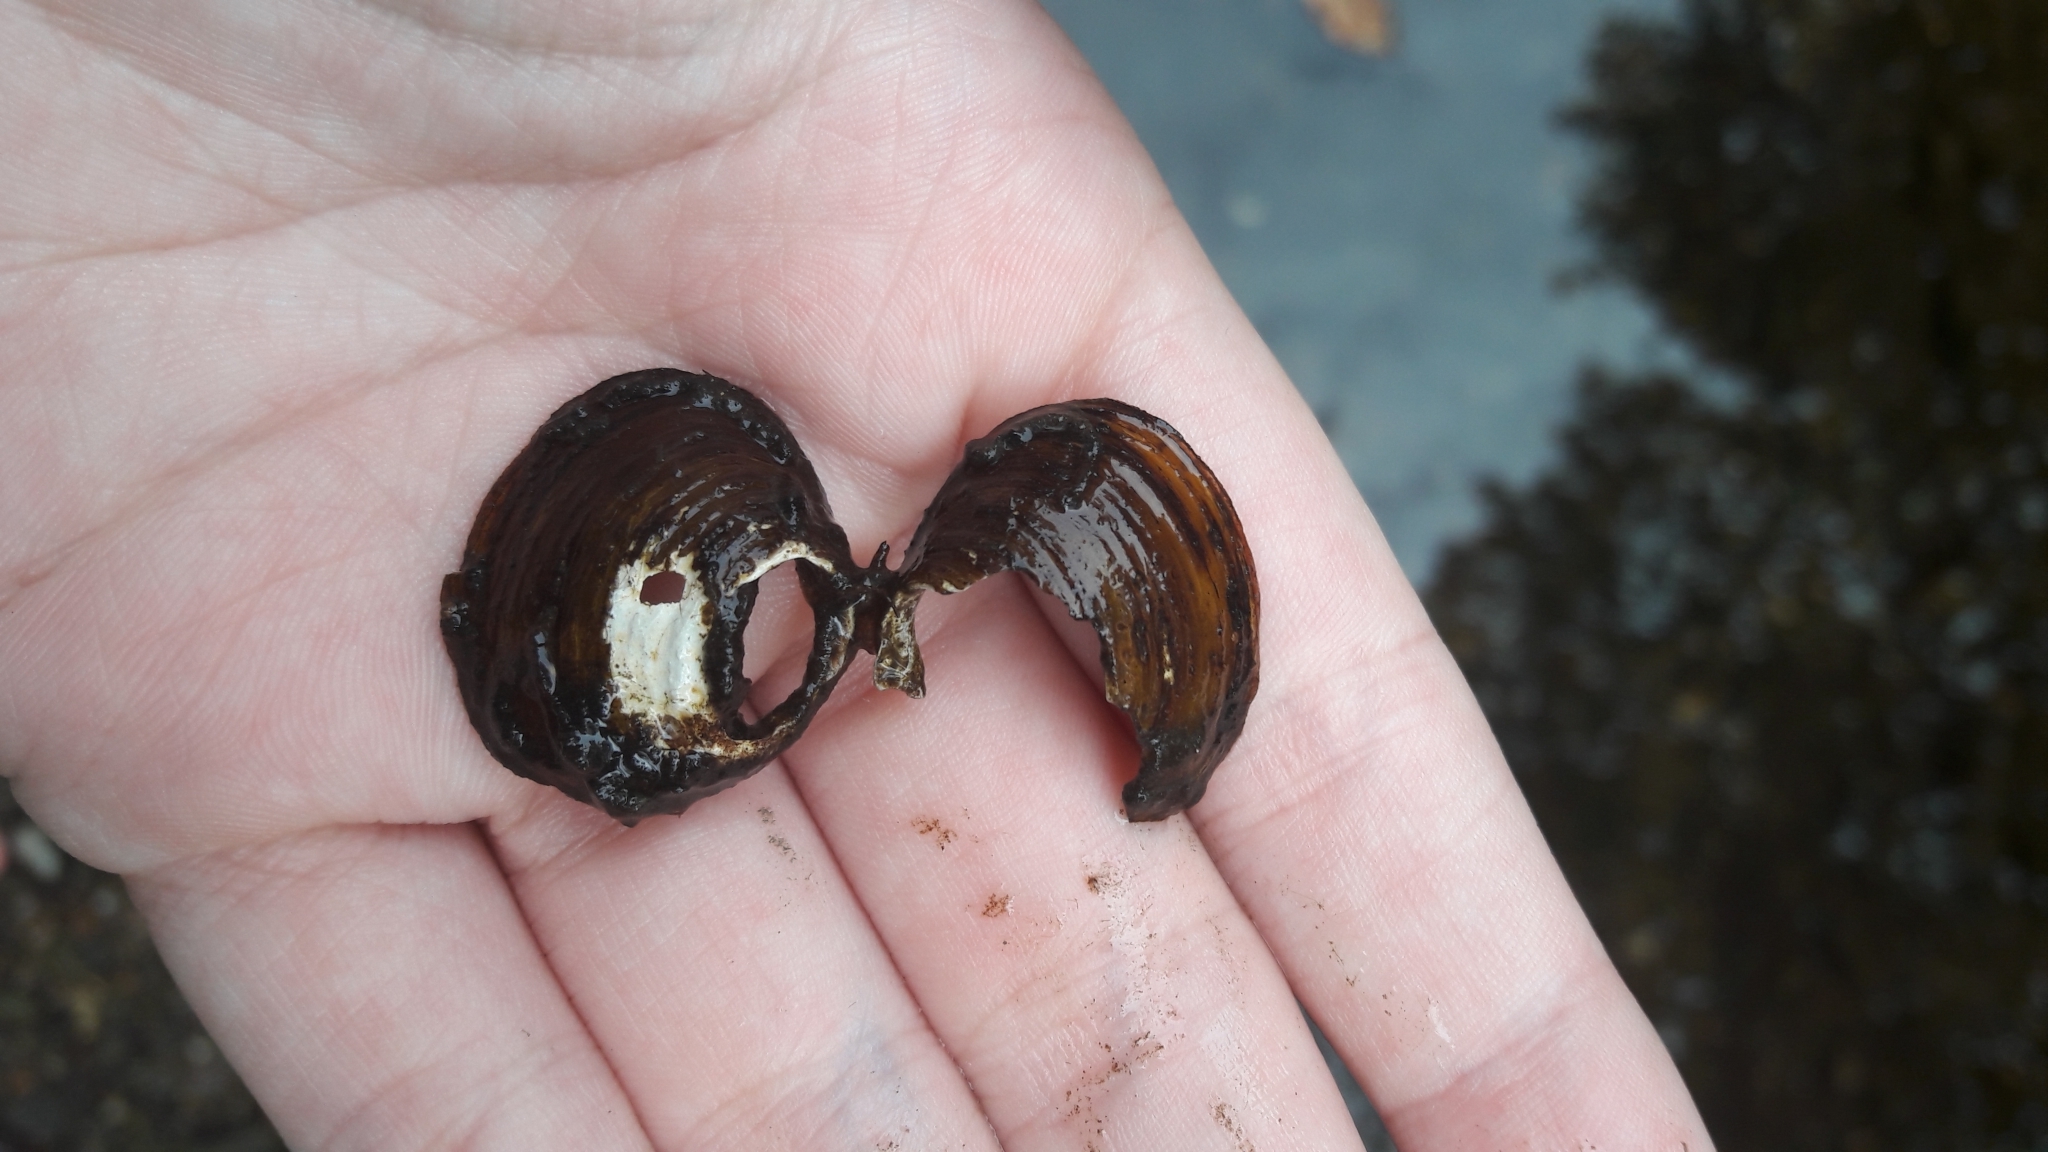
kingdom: Animalia
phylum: Mollusca
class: Bivalvia
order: Venerida
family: Cyrenidae
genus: Corbicula
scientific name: Corbicula fluminea
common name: Asian clam
